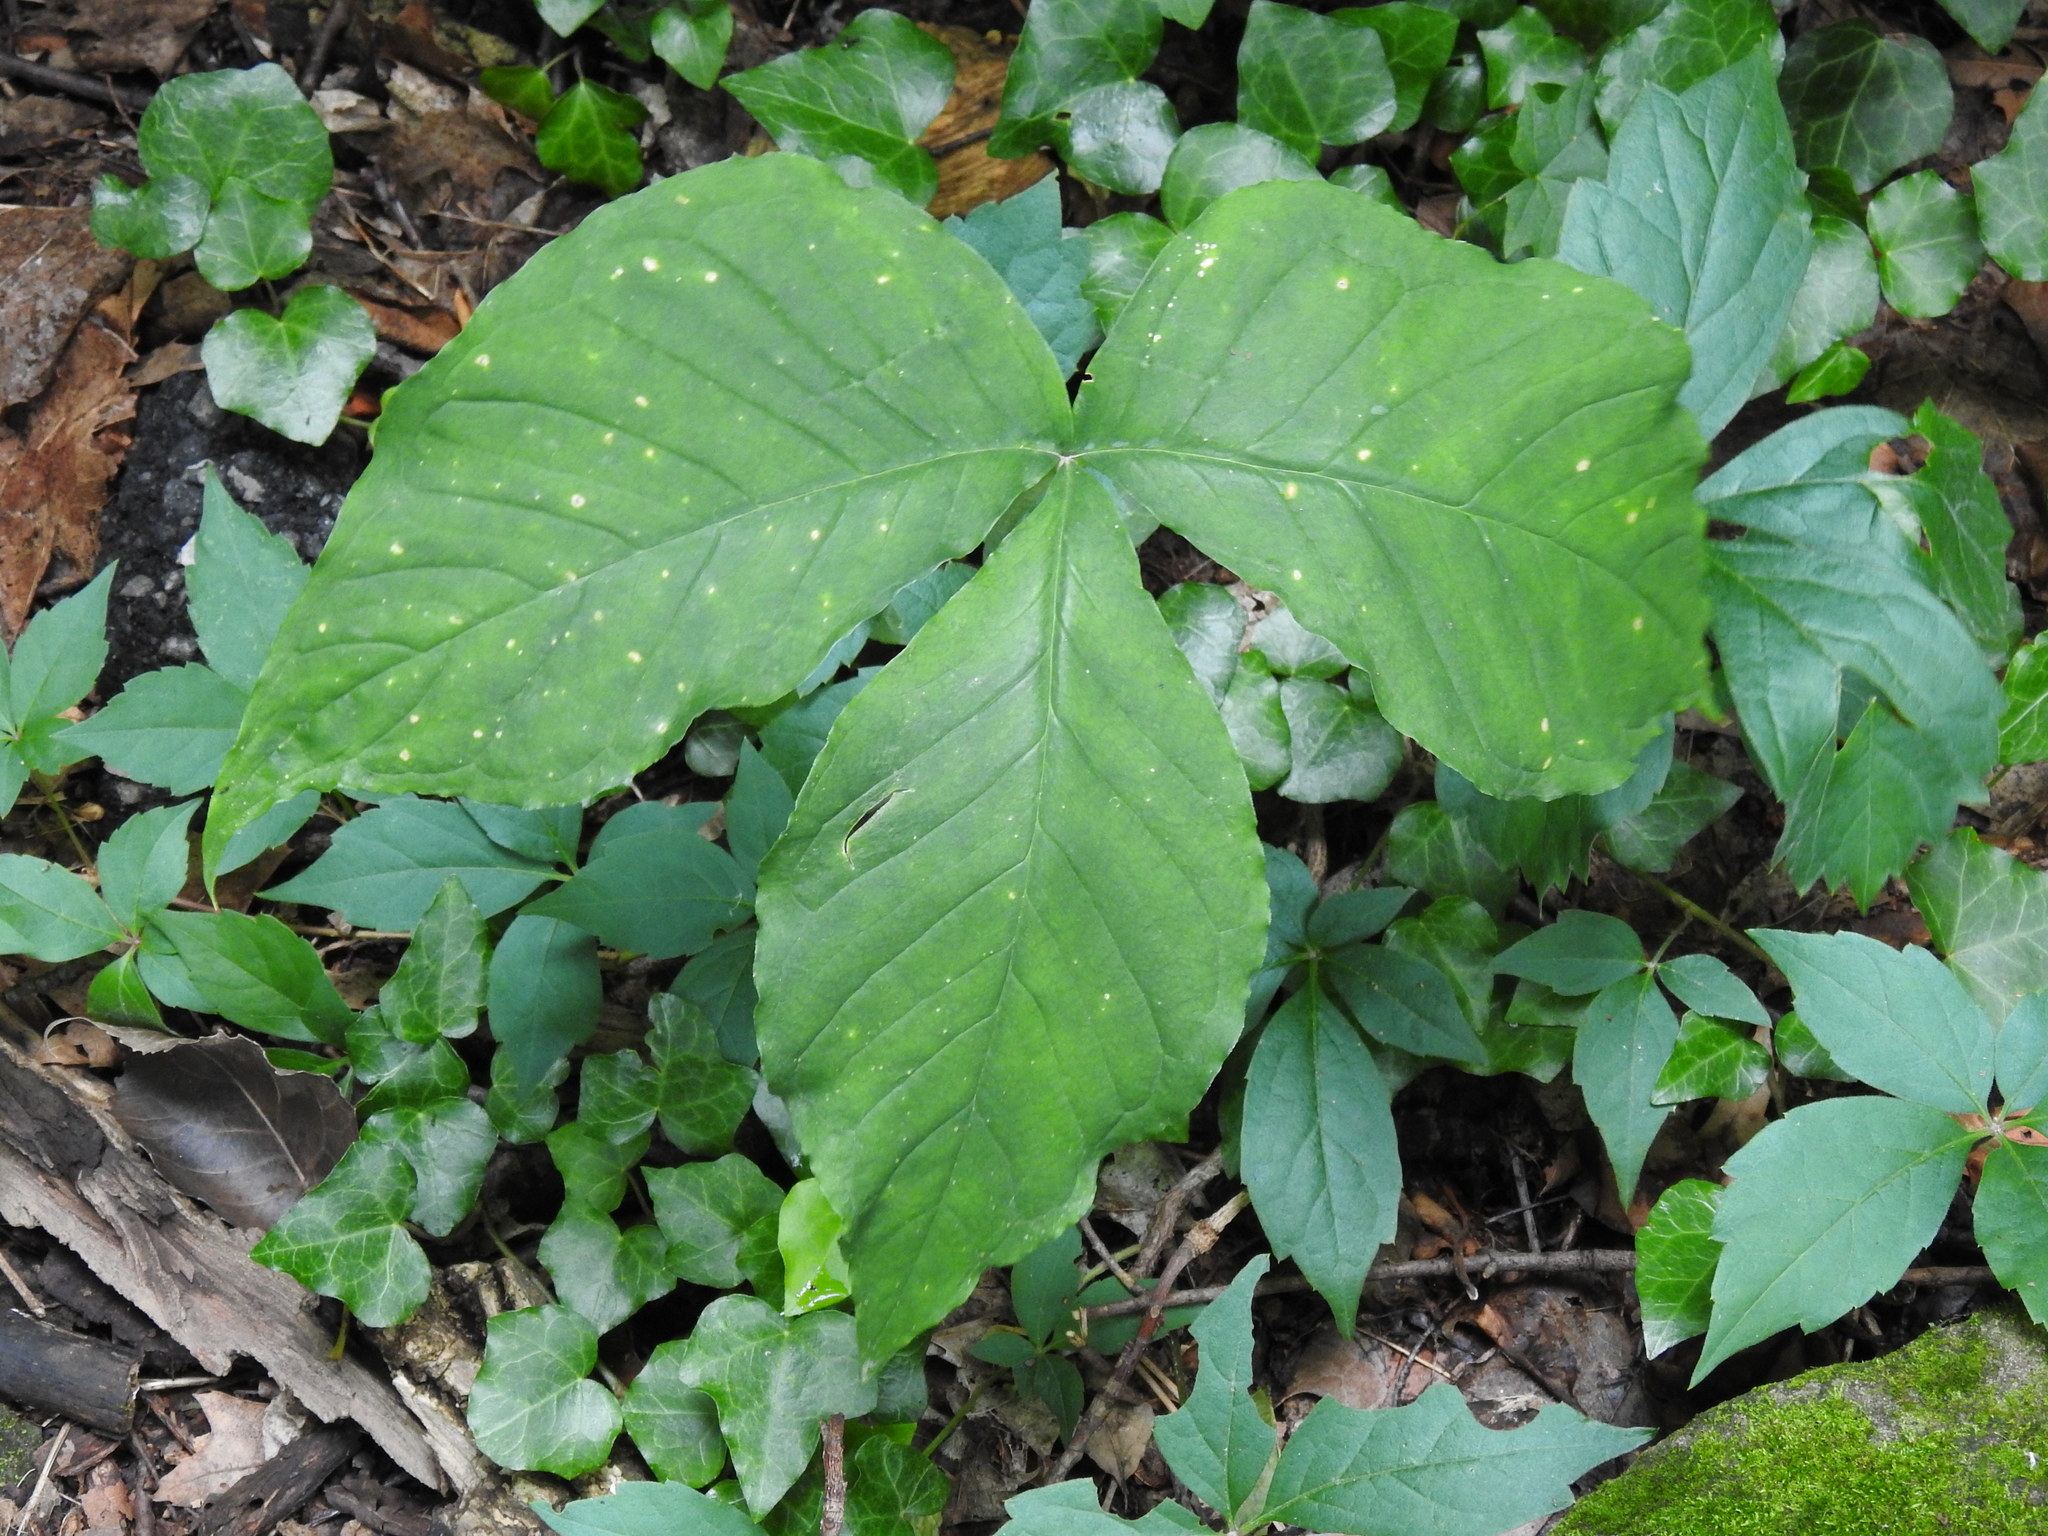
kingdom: Plantae
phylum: Tracheophyta
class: Liliopsida
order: Alismatales
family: Araceae
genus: Arisaema
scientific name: Arisaema triphyllum
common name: Jack-in-the-pulpit
